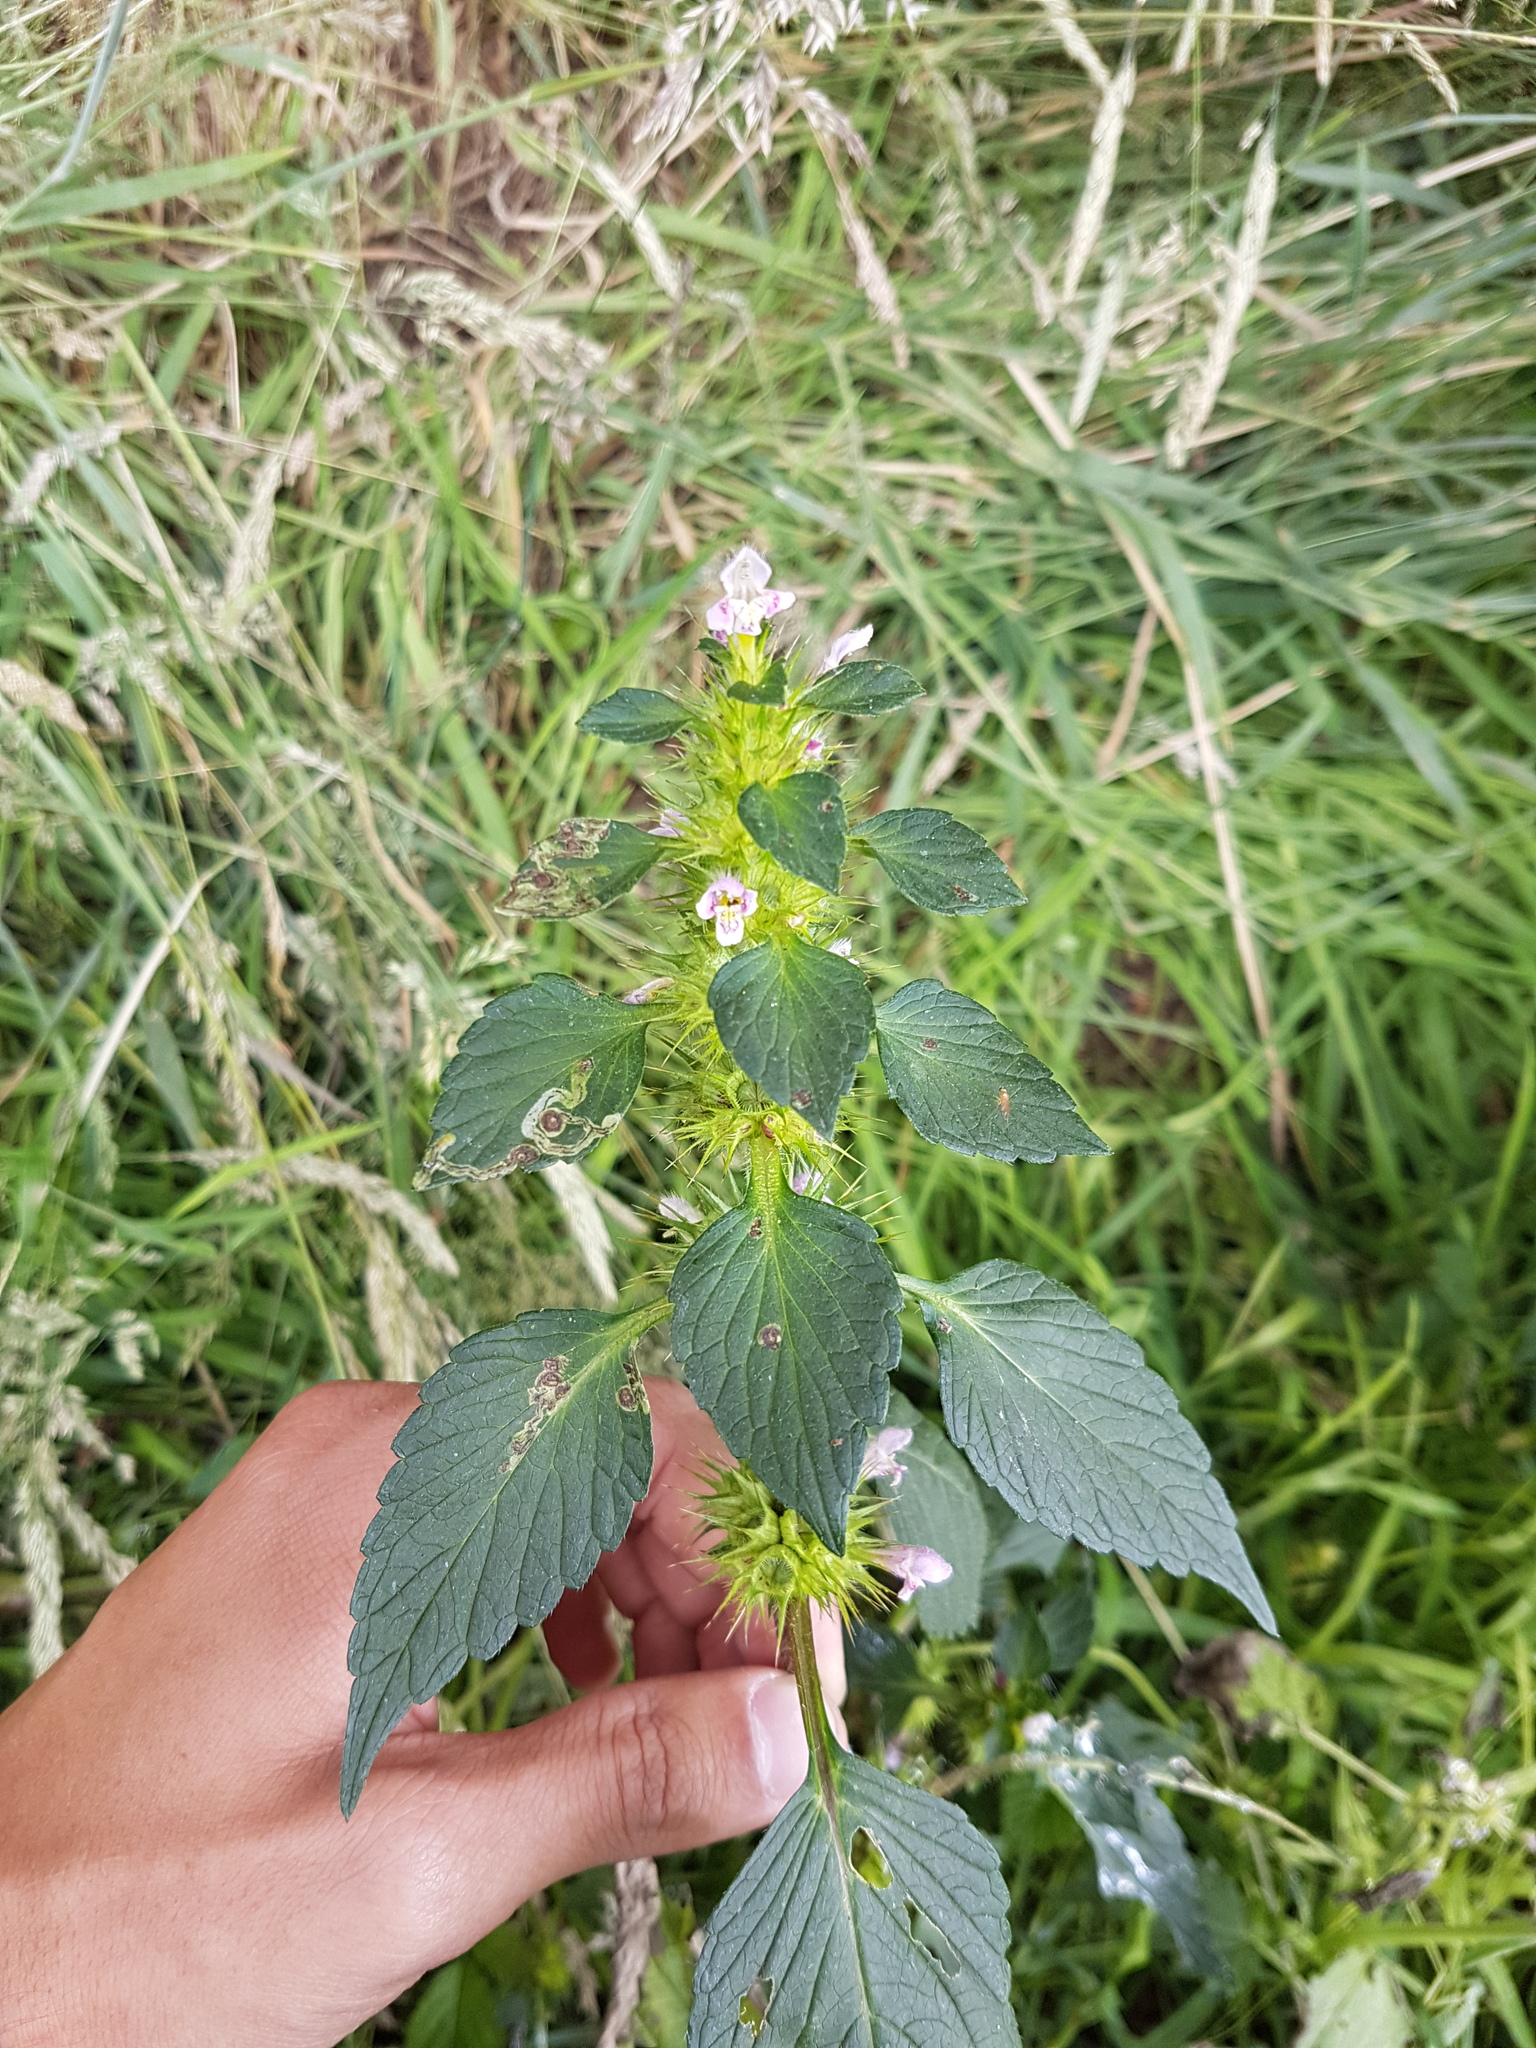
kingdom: Plantae
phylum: Tracheophyta
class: Magnoliopsida
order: Lamiales
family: Lamiaceae
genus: Galeopsis
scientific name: Galeopsis tetrahit
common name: Common hemp-nettle
